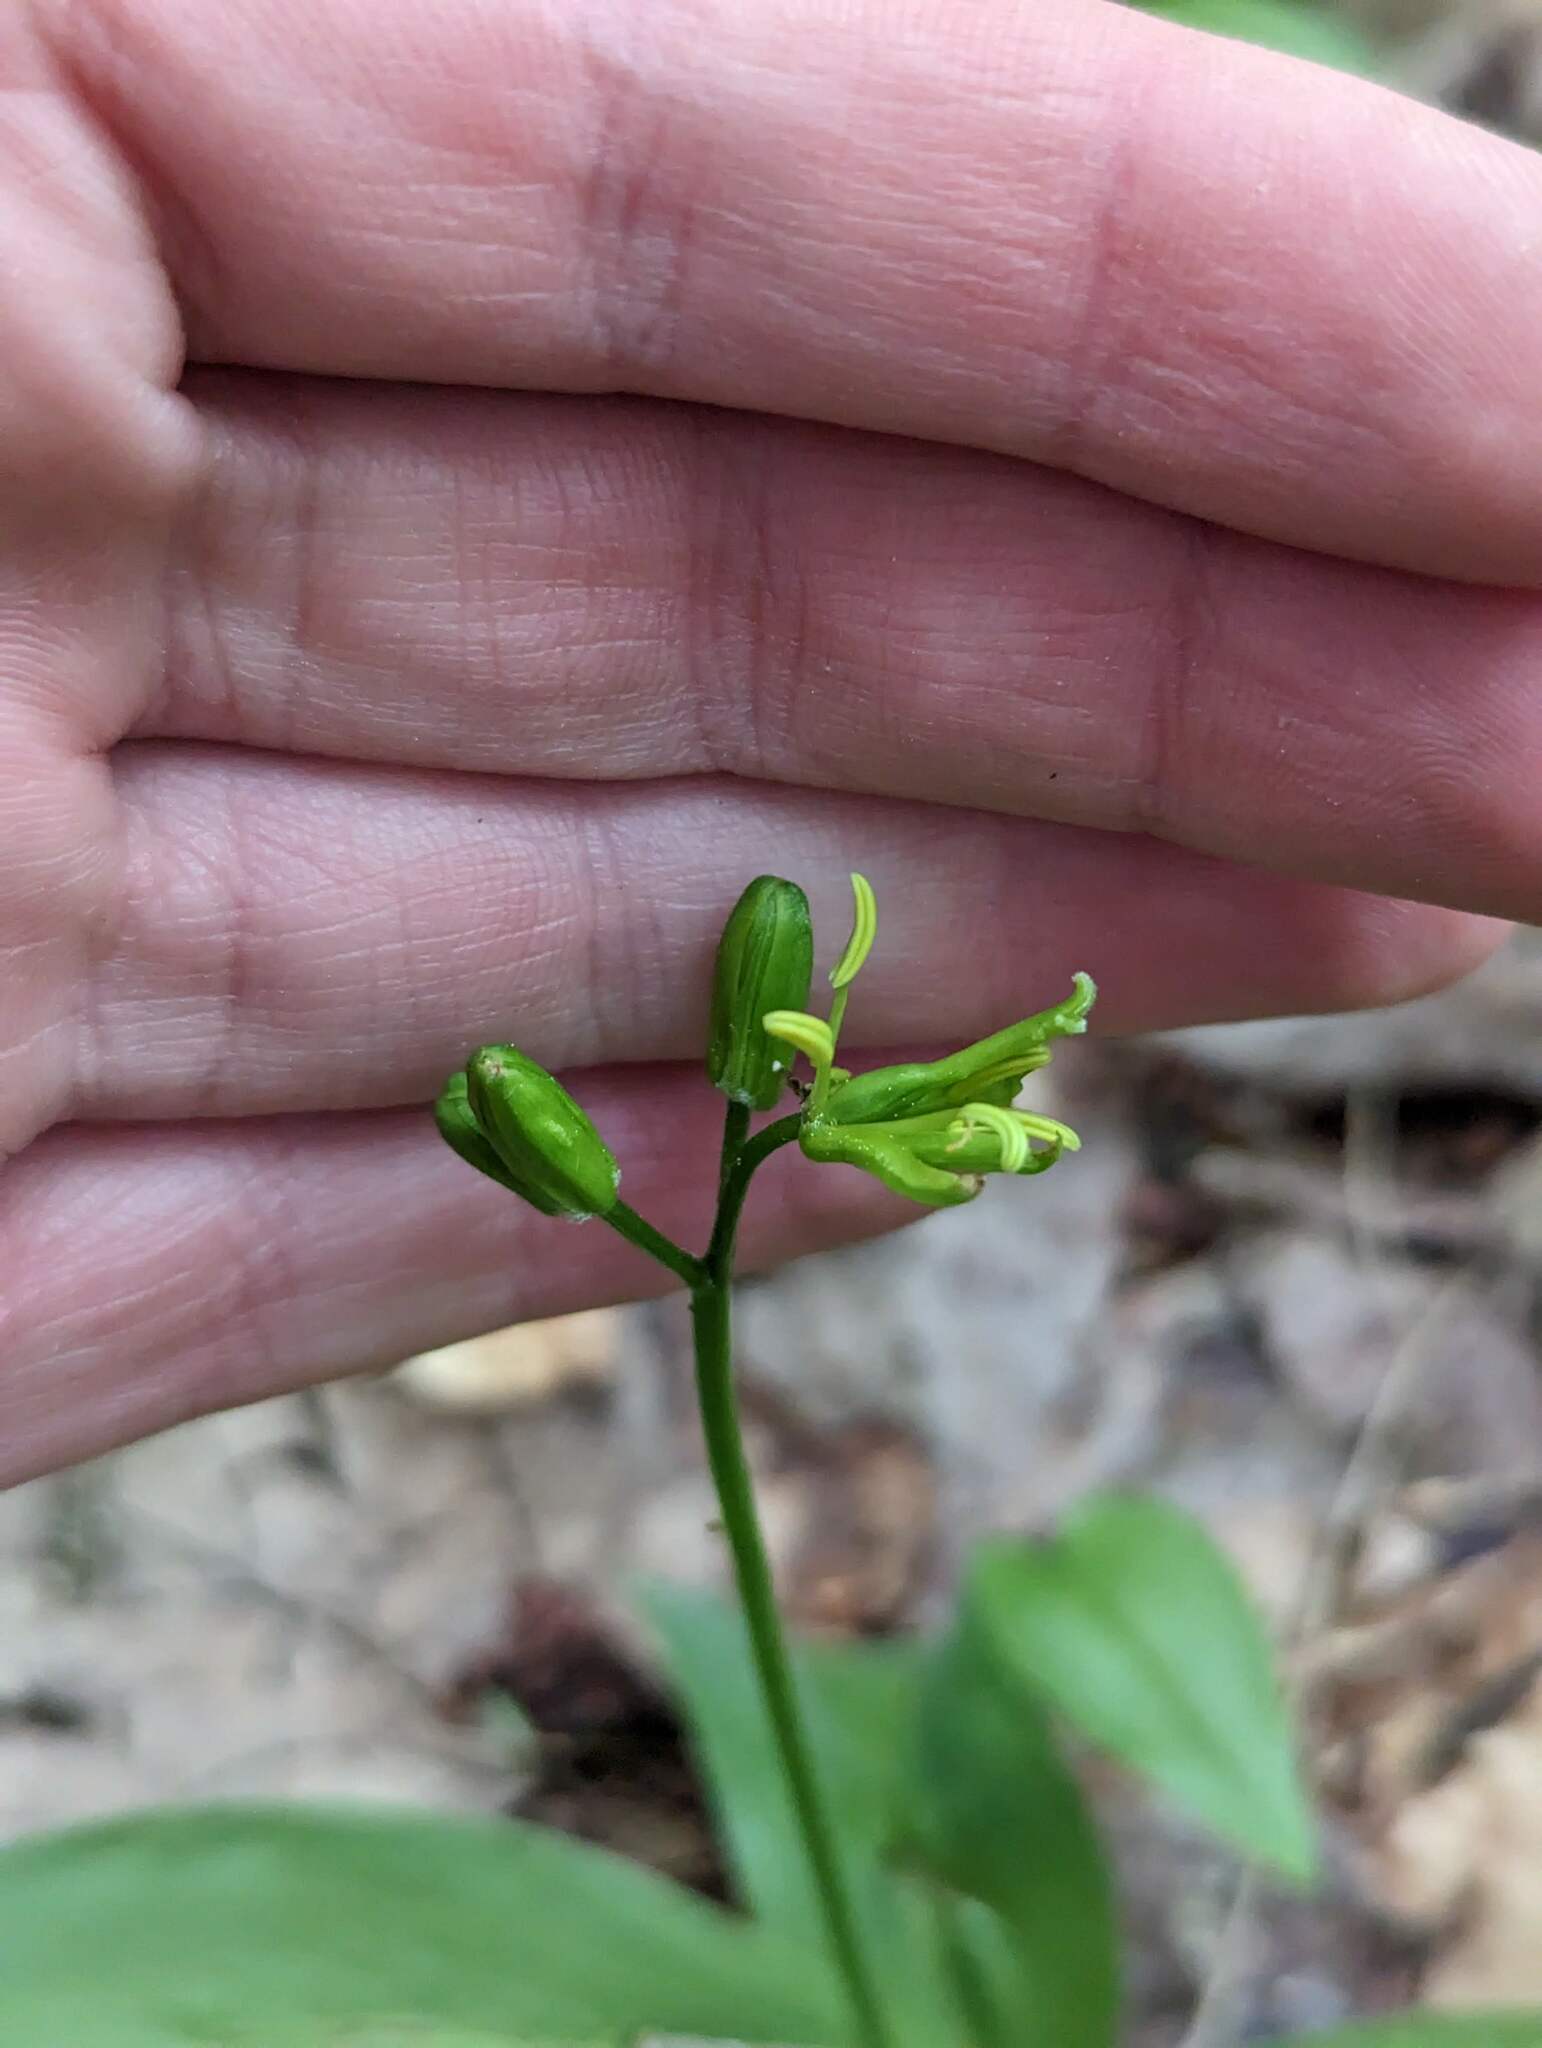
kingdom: Plantae
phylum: Tracheophyta
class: Liliopsida
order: Liliales
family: Liliaceae
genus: Clintonia
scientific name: Clintonia borealis
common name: Yellow clintonia
